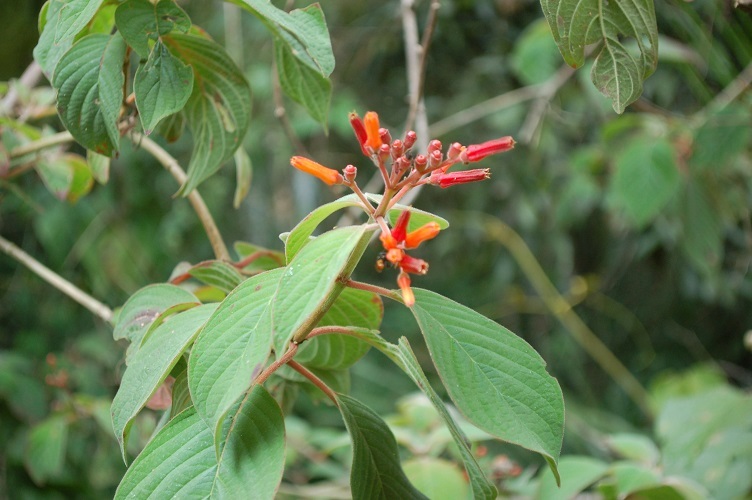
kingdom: Plantae
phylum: Tracheophyta
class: Magnoliopsida
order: Gentianales
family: Rubiaceae
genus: Hamelia
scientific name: Hamelia patens
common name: Redhead
